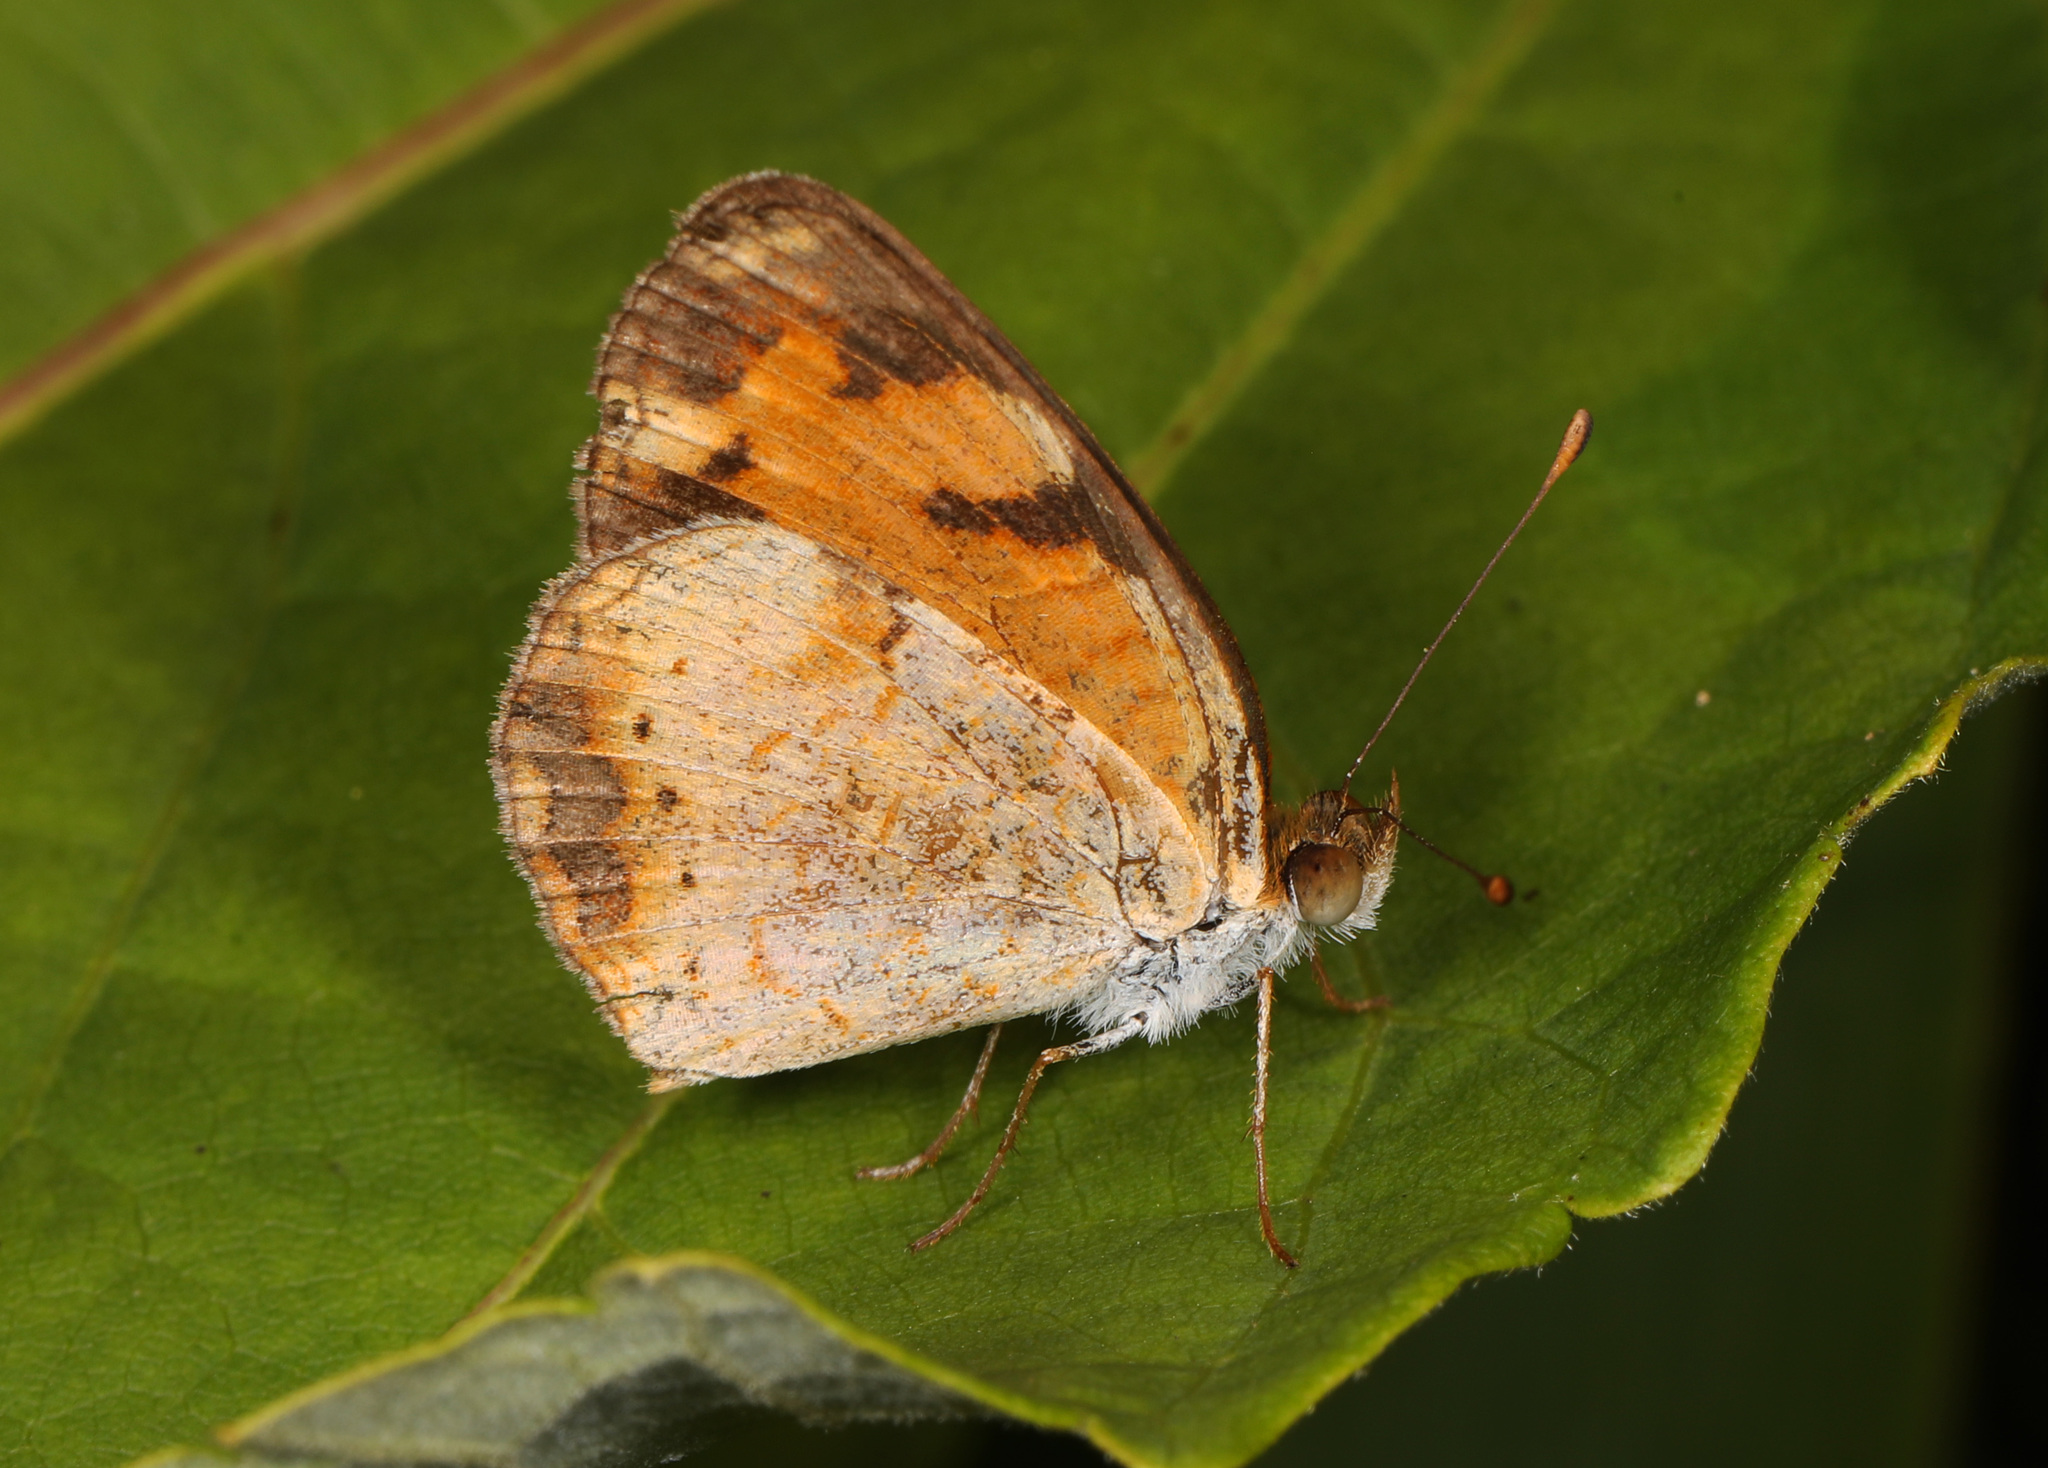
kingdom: Animalia
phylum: Arthropoda
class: Insecta
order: Lepidoptera
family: Nymphalidae
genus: Phyciodes
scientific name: Phyciodes tharos
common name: Pearl crescent
